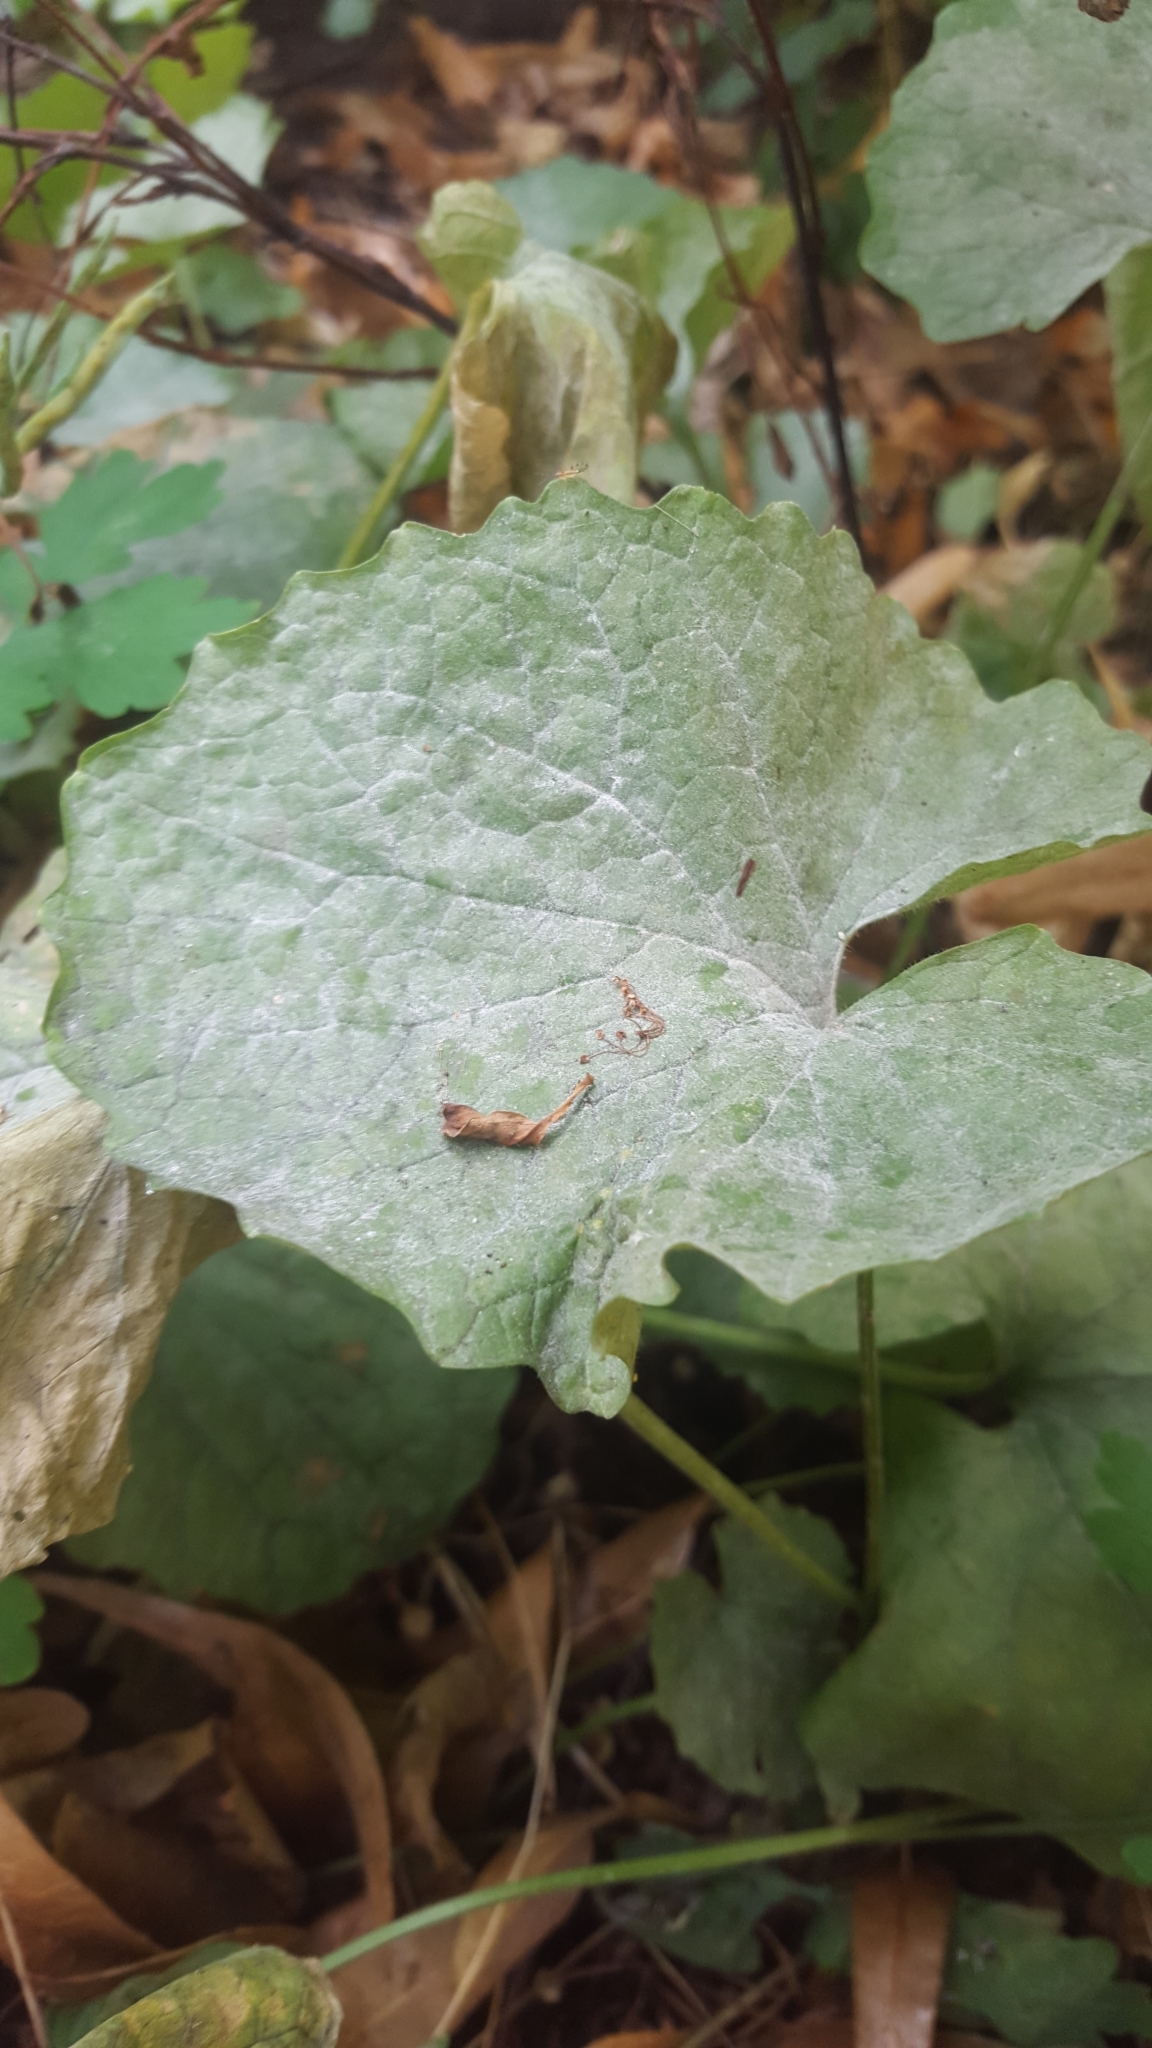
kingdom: Fungi
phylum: Ascomycota
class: Leotiomycetes
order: Helotiales
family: Erysiphaceae
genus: Erysiphe
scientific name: Erysiphe cruciferarum
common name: Brassica powdery mildew
